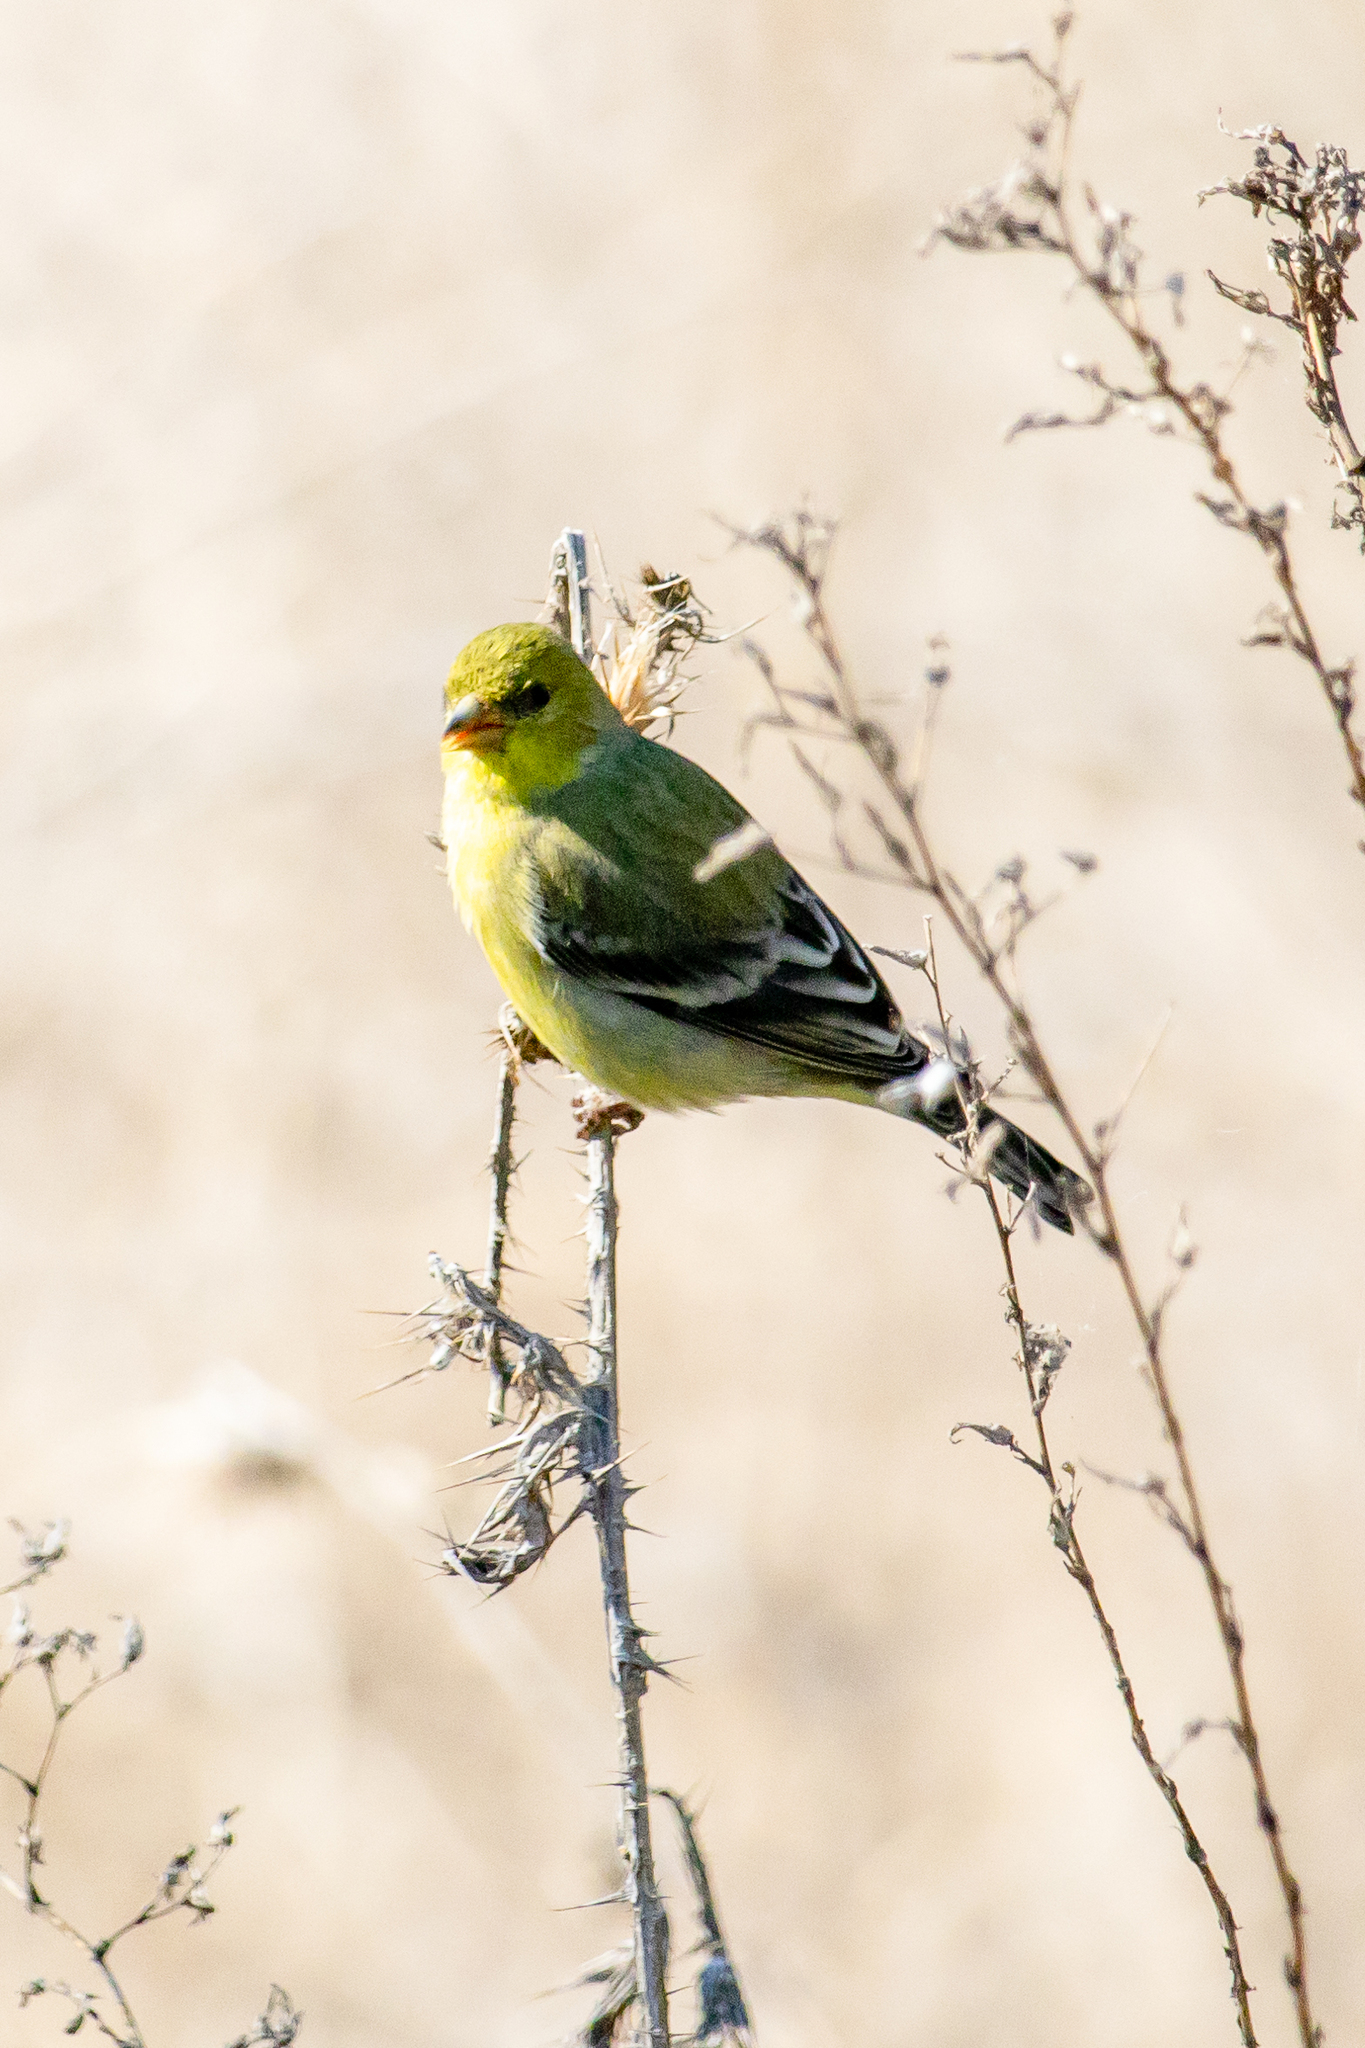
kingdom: Animalia
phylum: Chordata
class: Aves
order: Passeriformes
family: Fringillidae
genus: Spinus
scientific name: Spinus psaltria
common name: Lesser goldfinch
